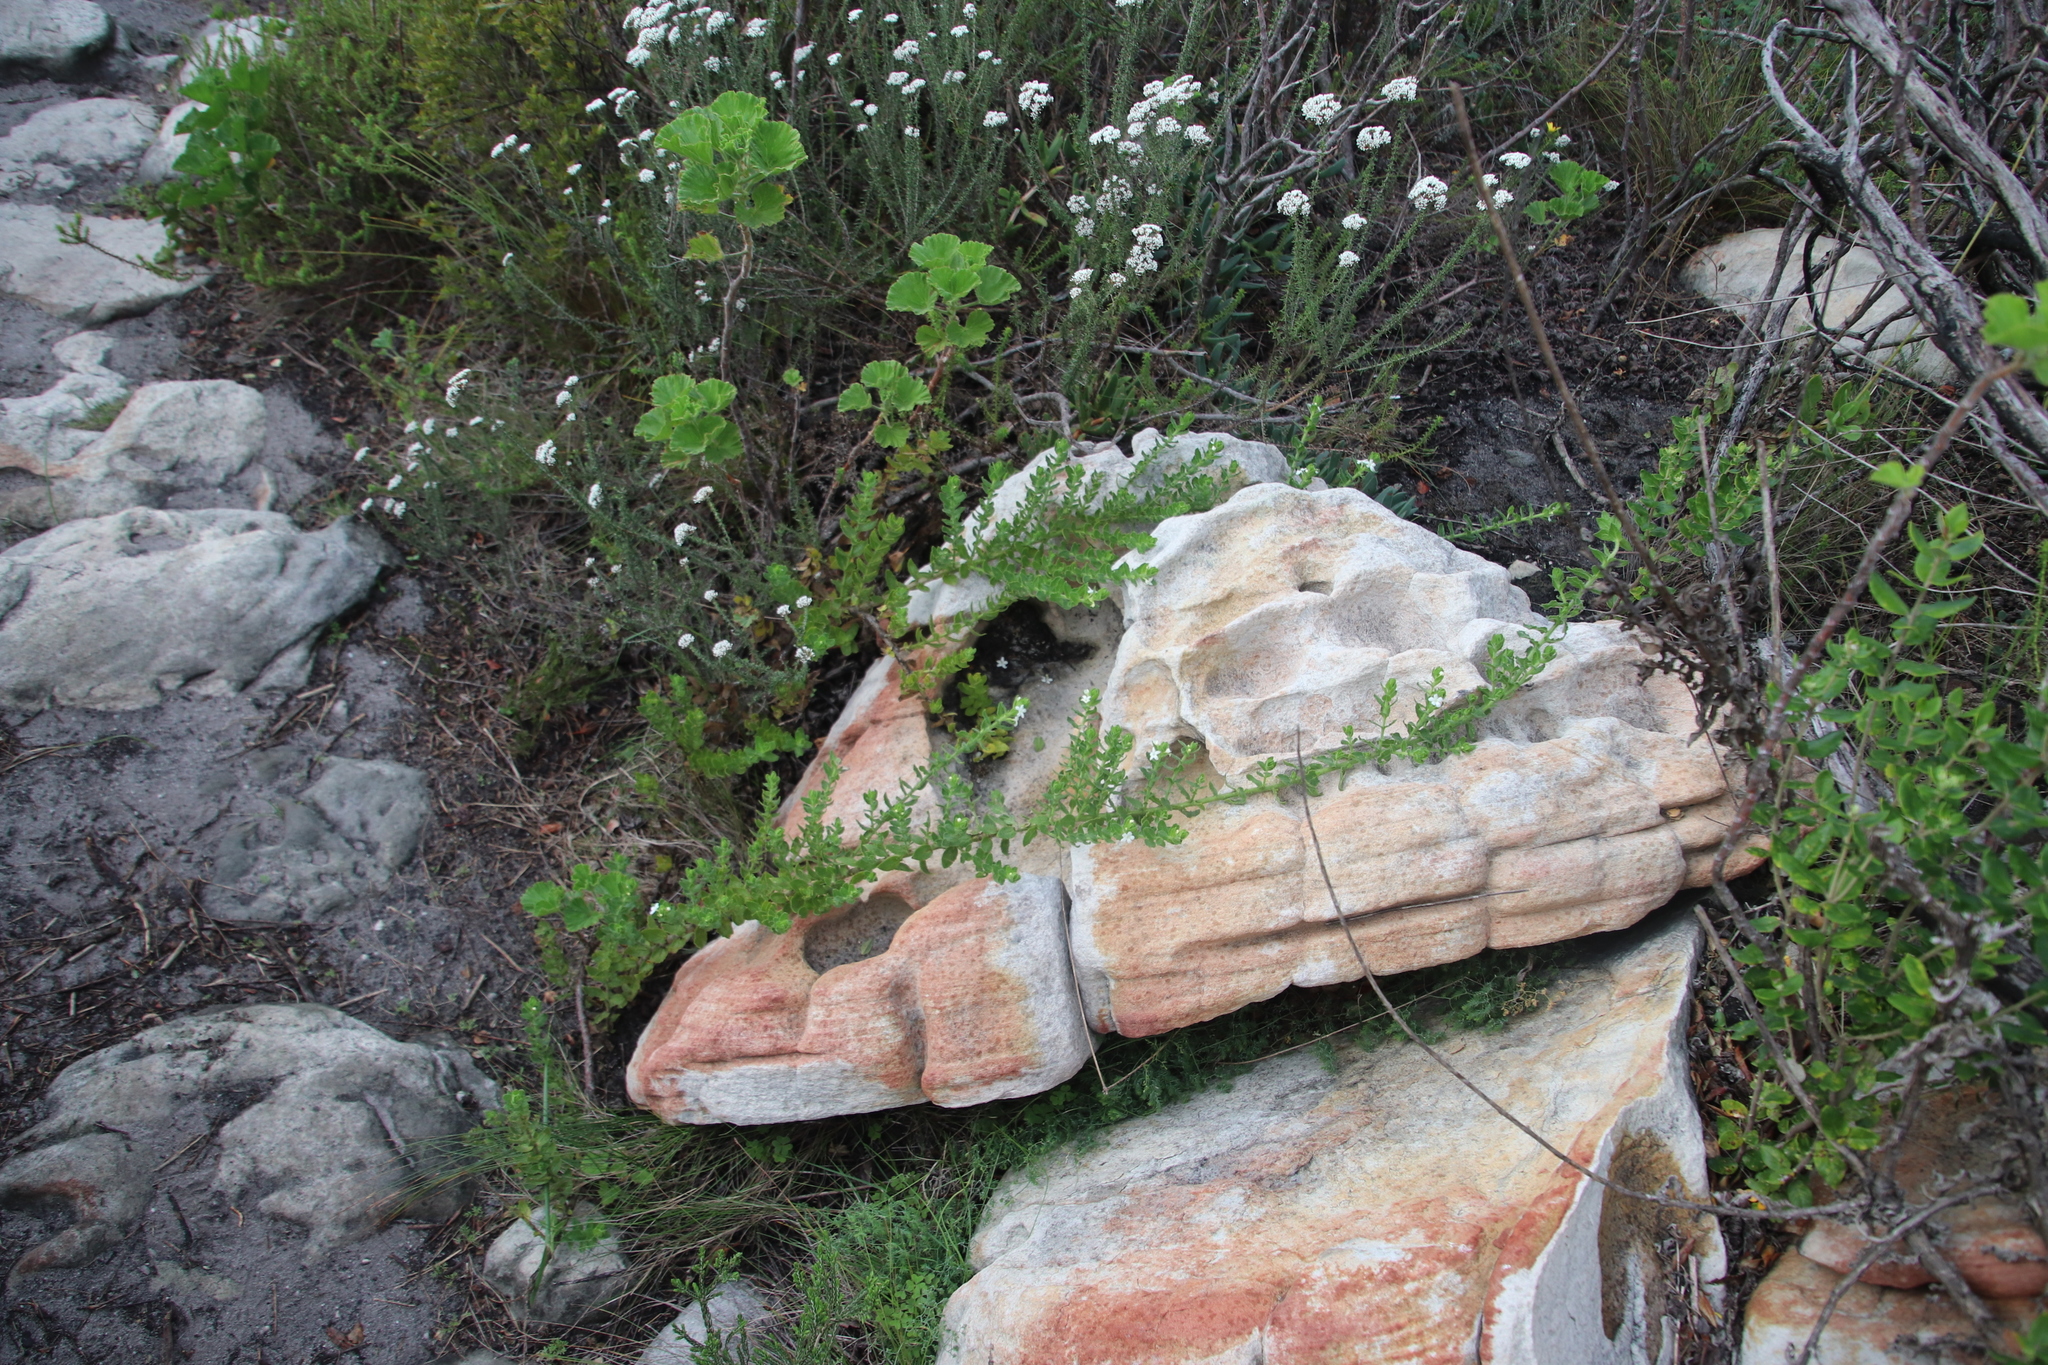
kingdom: Plantae
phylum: Tracheophyta
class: Magnoliopsida
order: Lamiales
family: Scrophulariaceae
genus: Oftia
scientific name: Oftia africana
